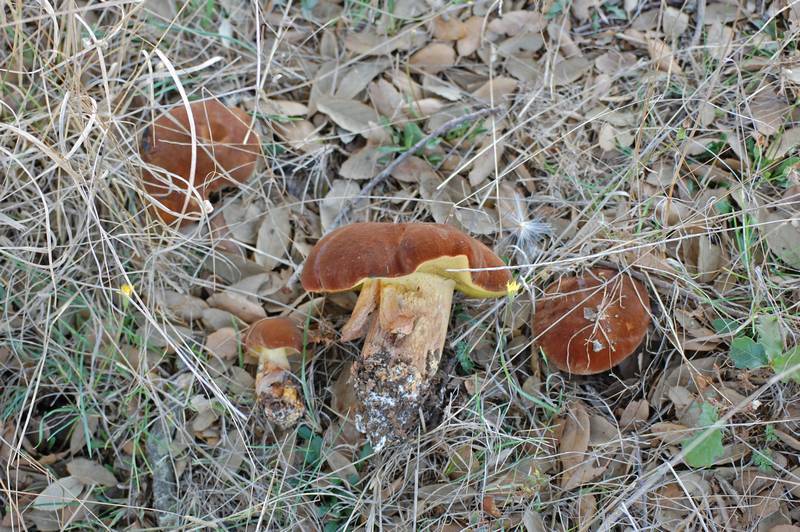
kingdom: Fungi
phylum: Basidiomycota
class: Agaricomycetes
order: Boletales
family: Boletaceae
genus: Lanmaoa
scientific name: Lanmaoa fragrans
